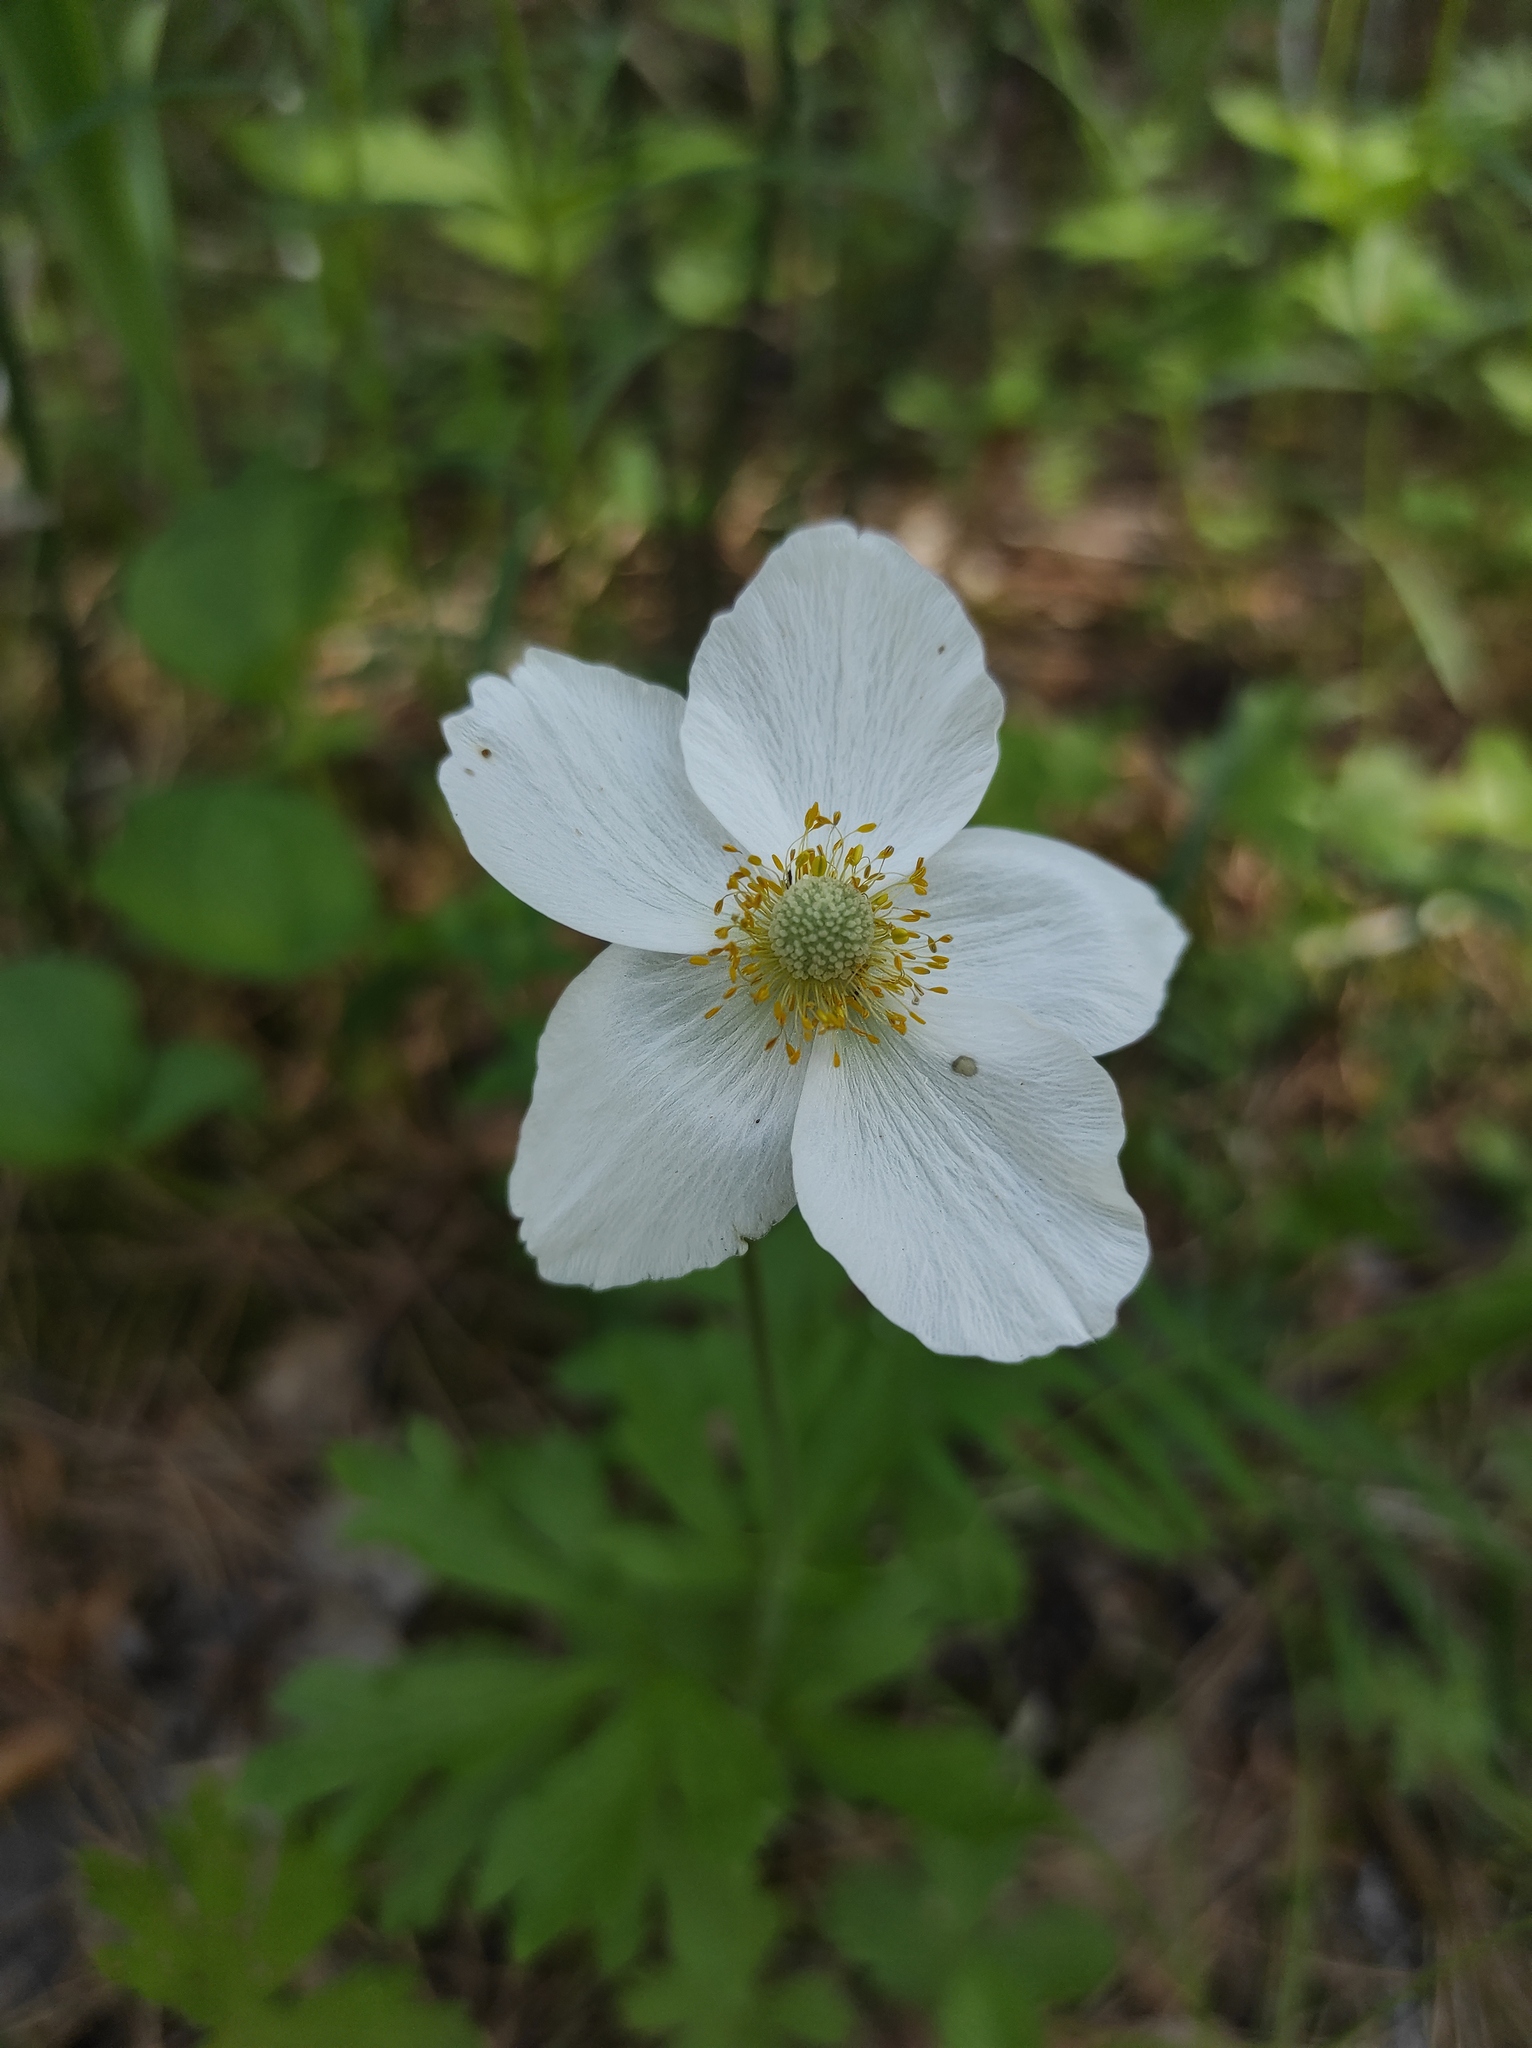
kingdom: Plantae
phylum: Tracheophyta
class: Magnoliopsida
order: Ranunculales
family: Ranunculaceae
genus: Anemone
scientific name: Anemone sylvestris
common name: Snowdrop anemone
